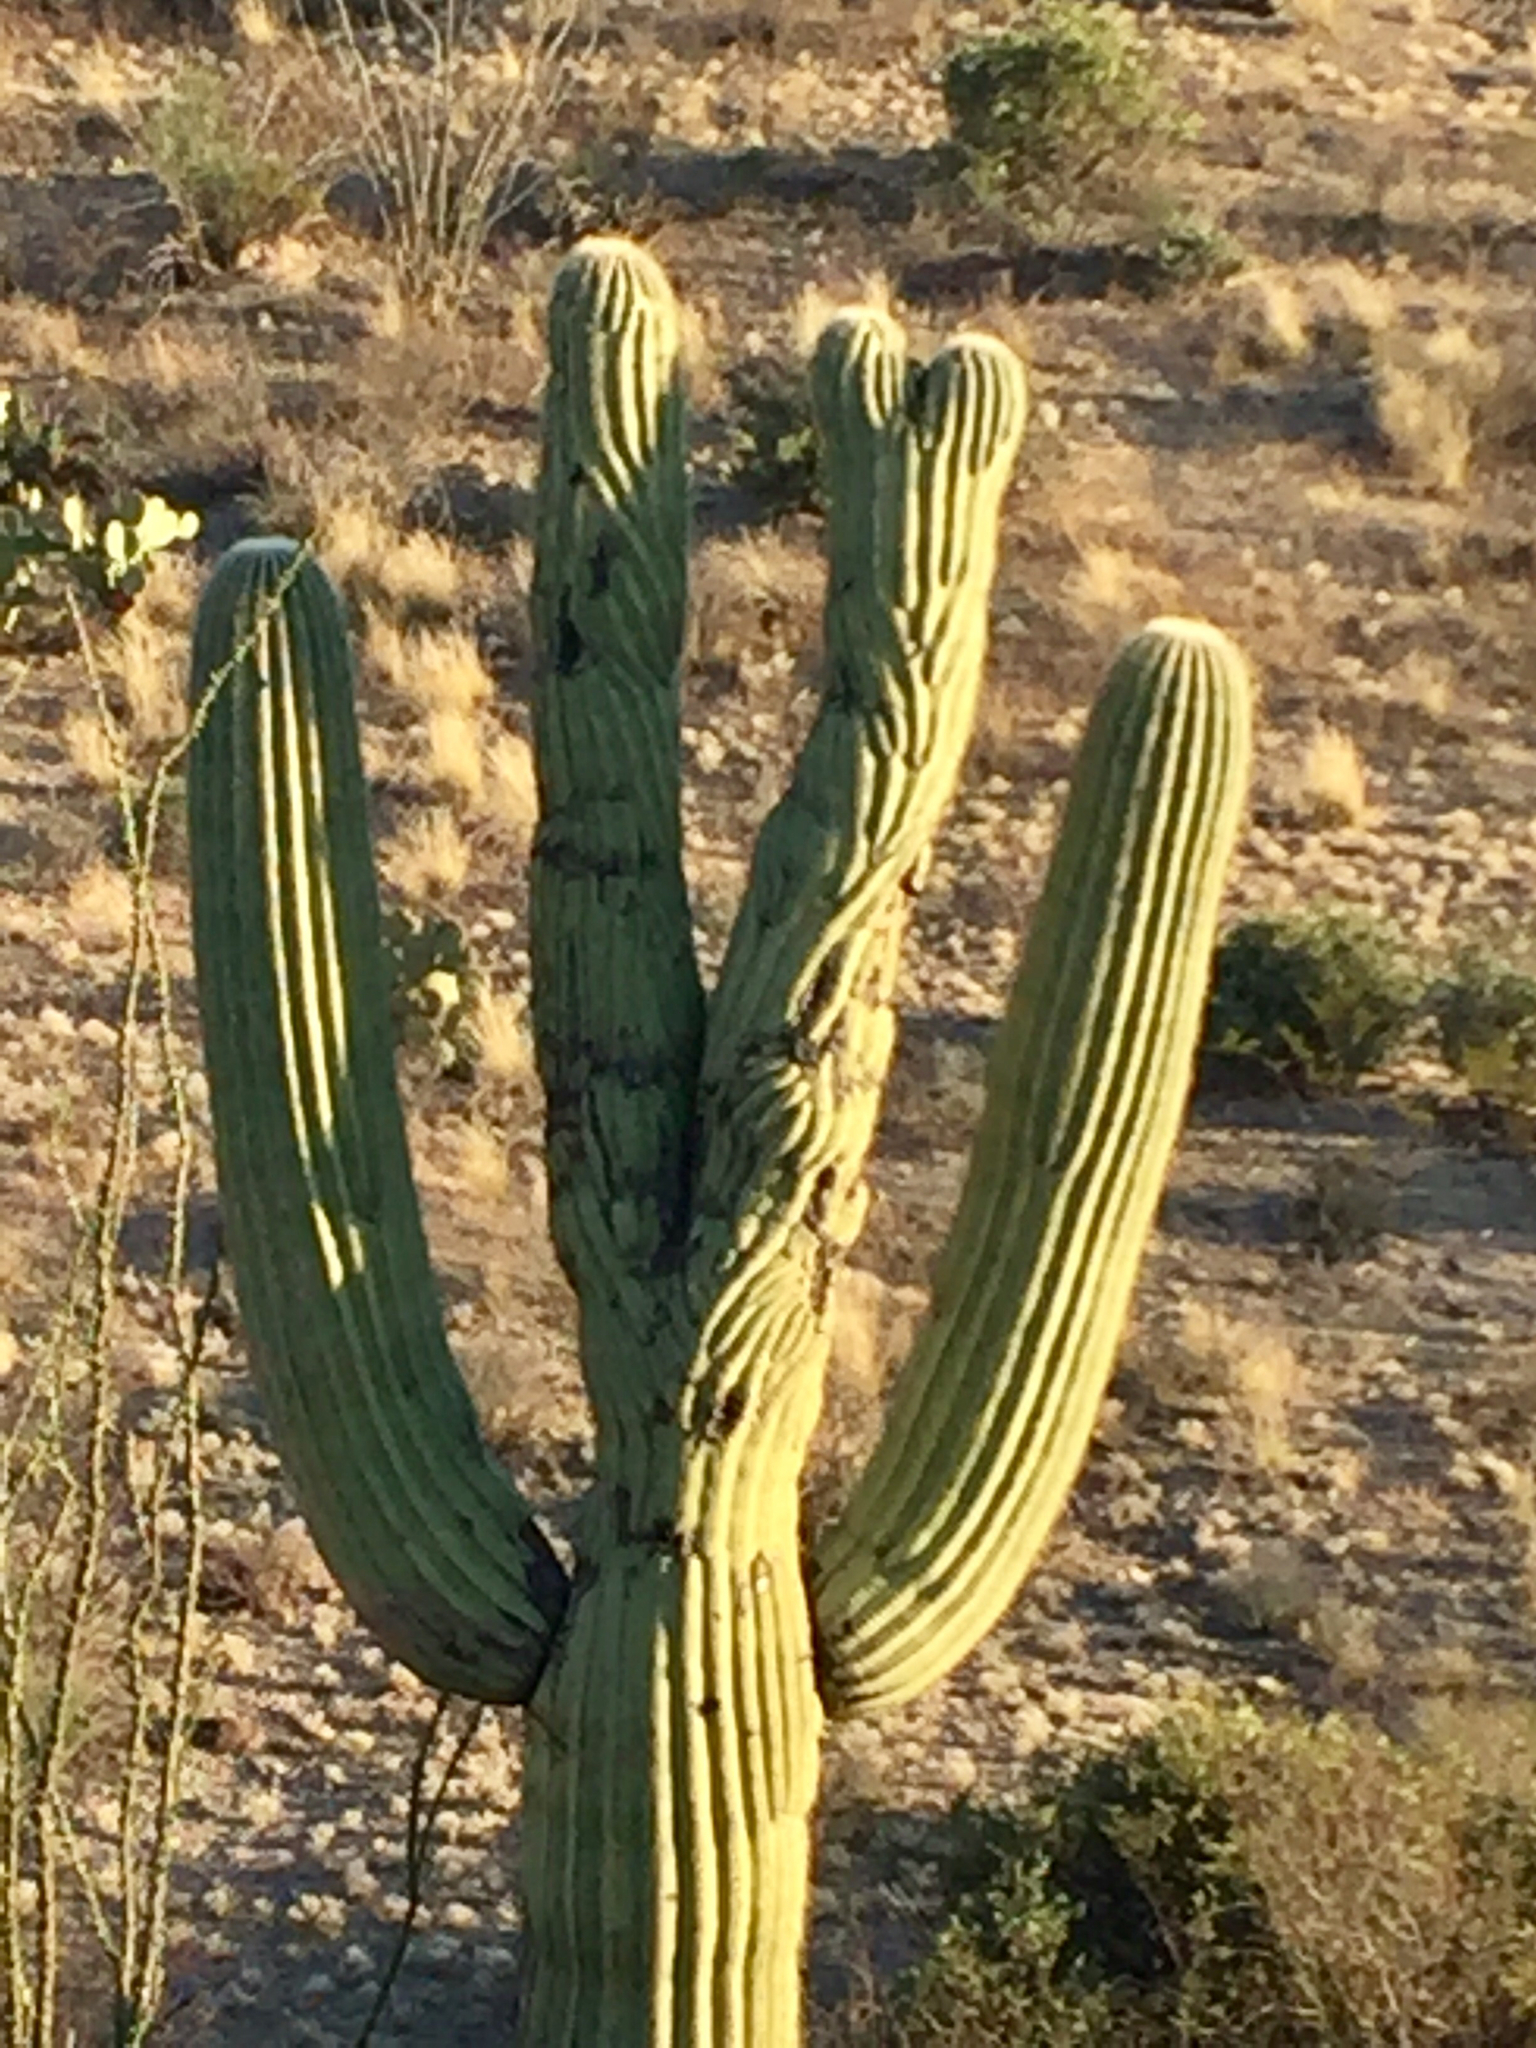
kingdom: Plantae
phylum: Tracheophyta
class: Magnoliopsida
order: Caryophyllales
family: Cactaceae
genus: Carnegiea
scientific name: Carnegiea gigantea
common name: Saguaro
